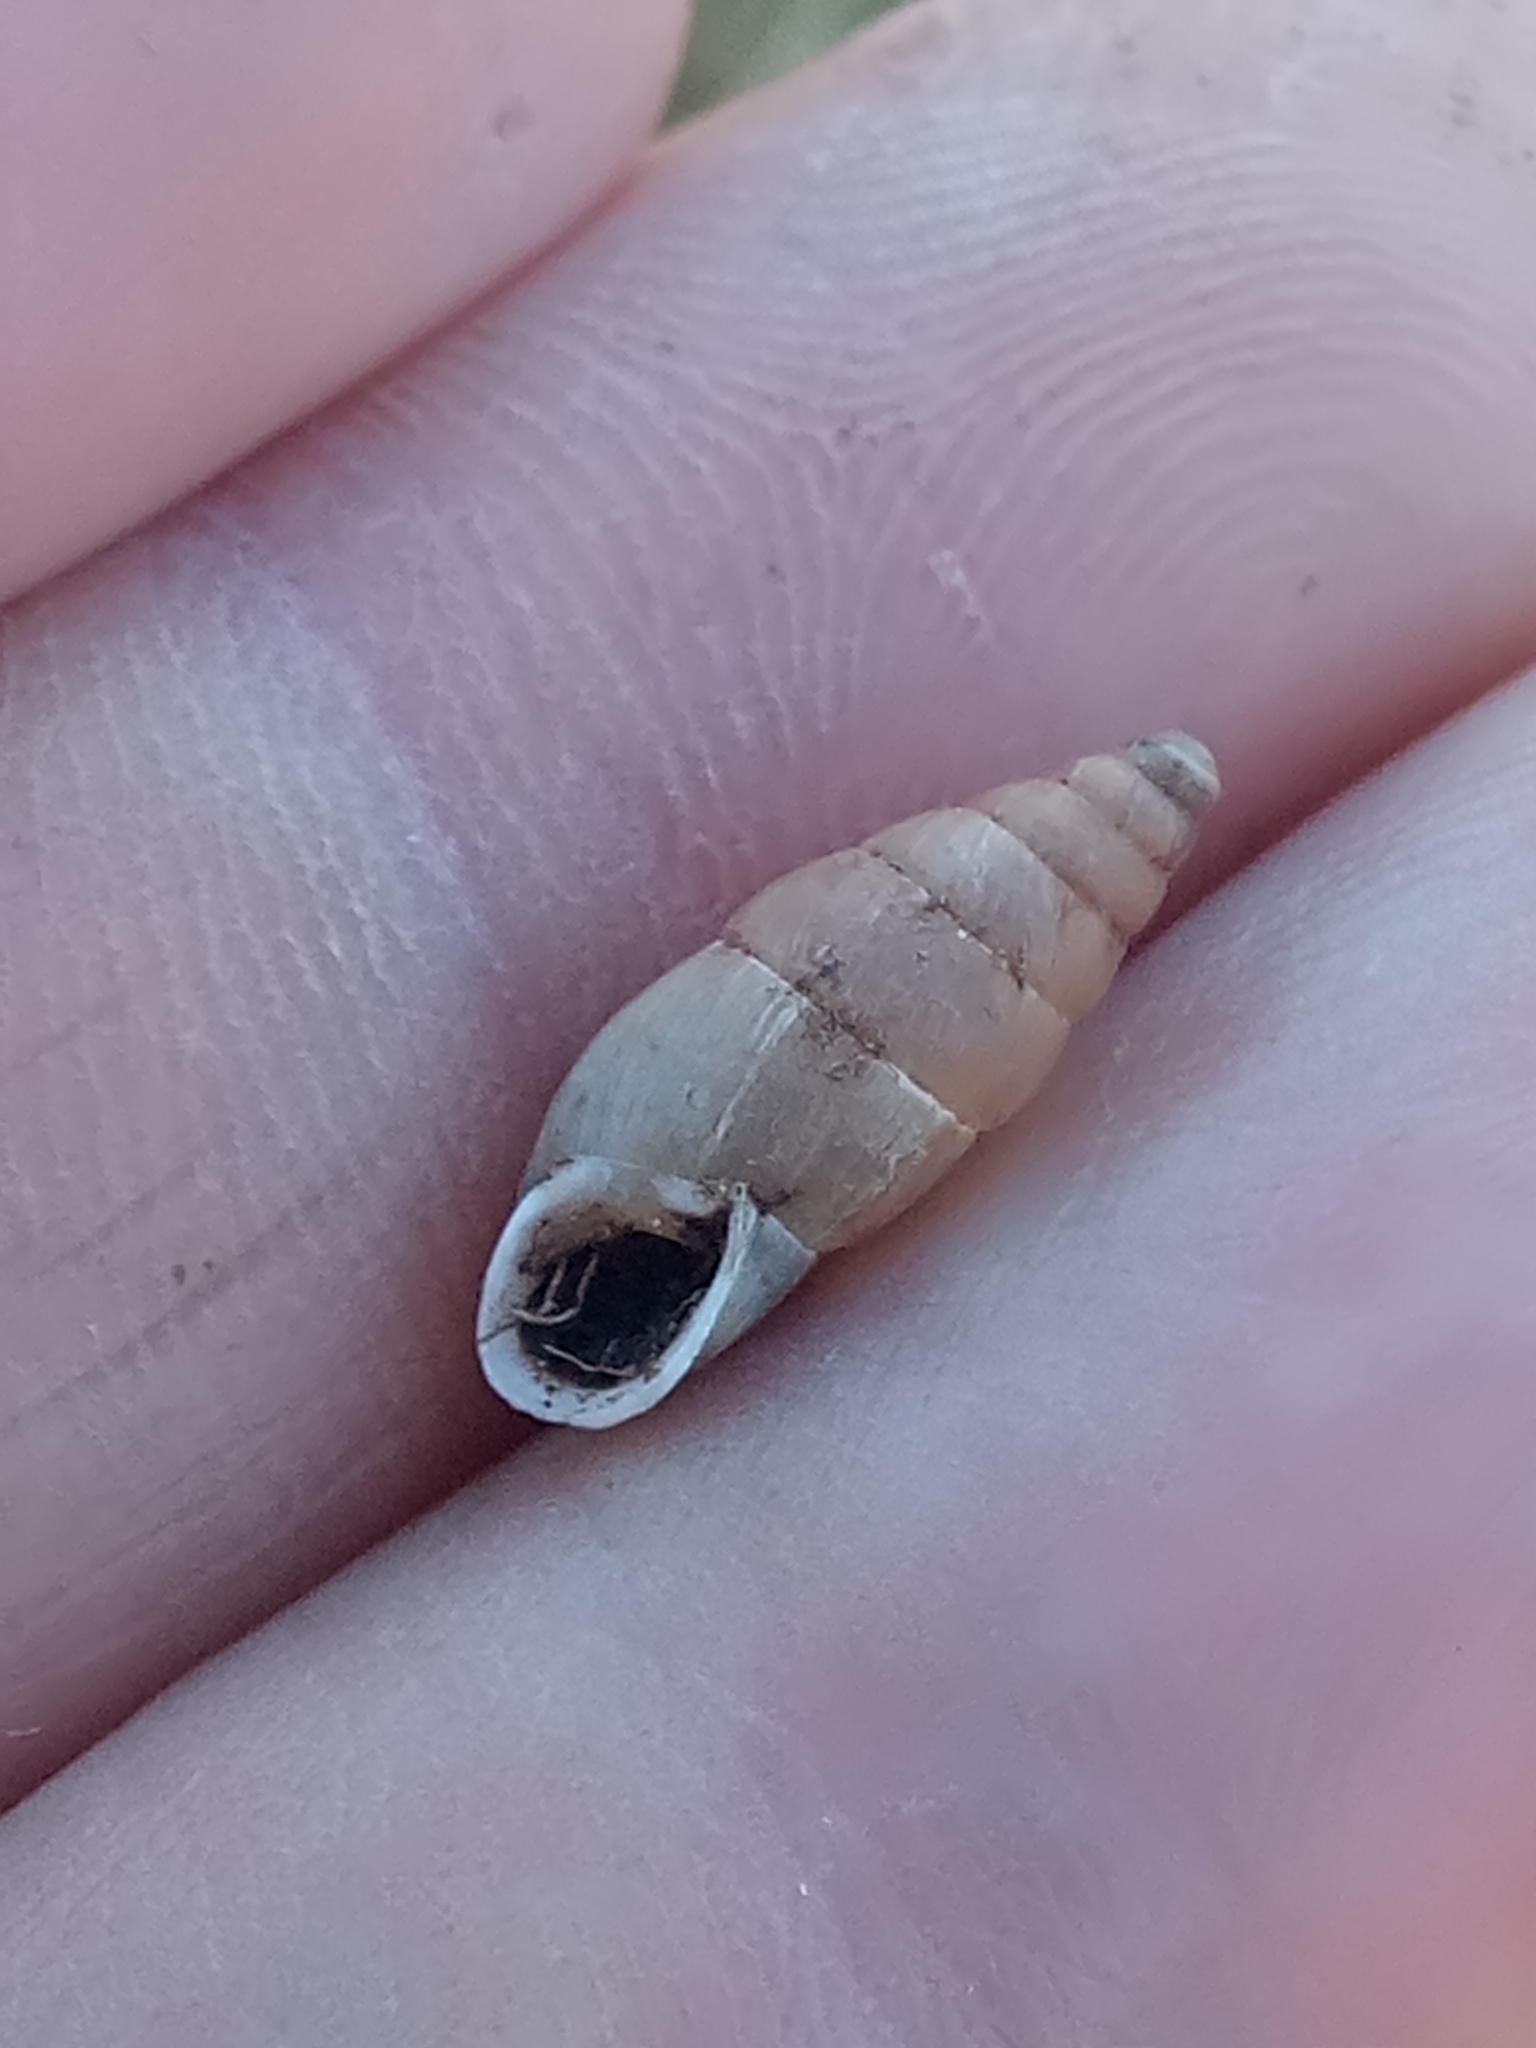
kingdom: Animalia
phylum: Mollusca
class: Gastropoda
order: Stylommatophora
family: Enidae
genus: Mastus
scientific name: Mastus pupa
